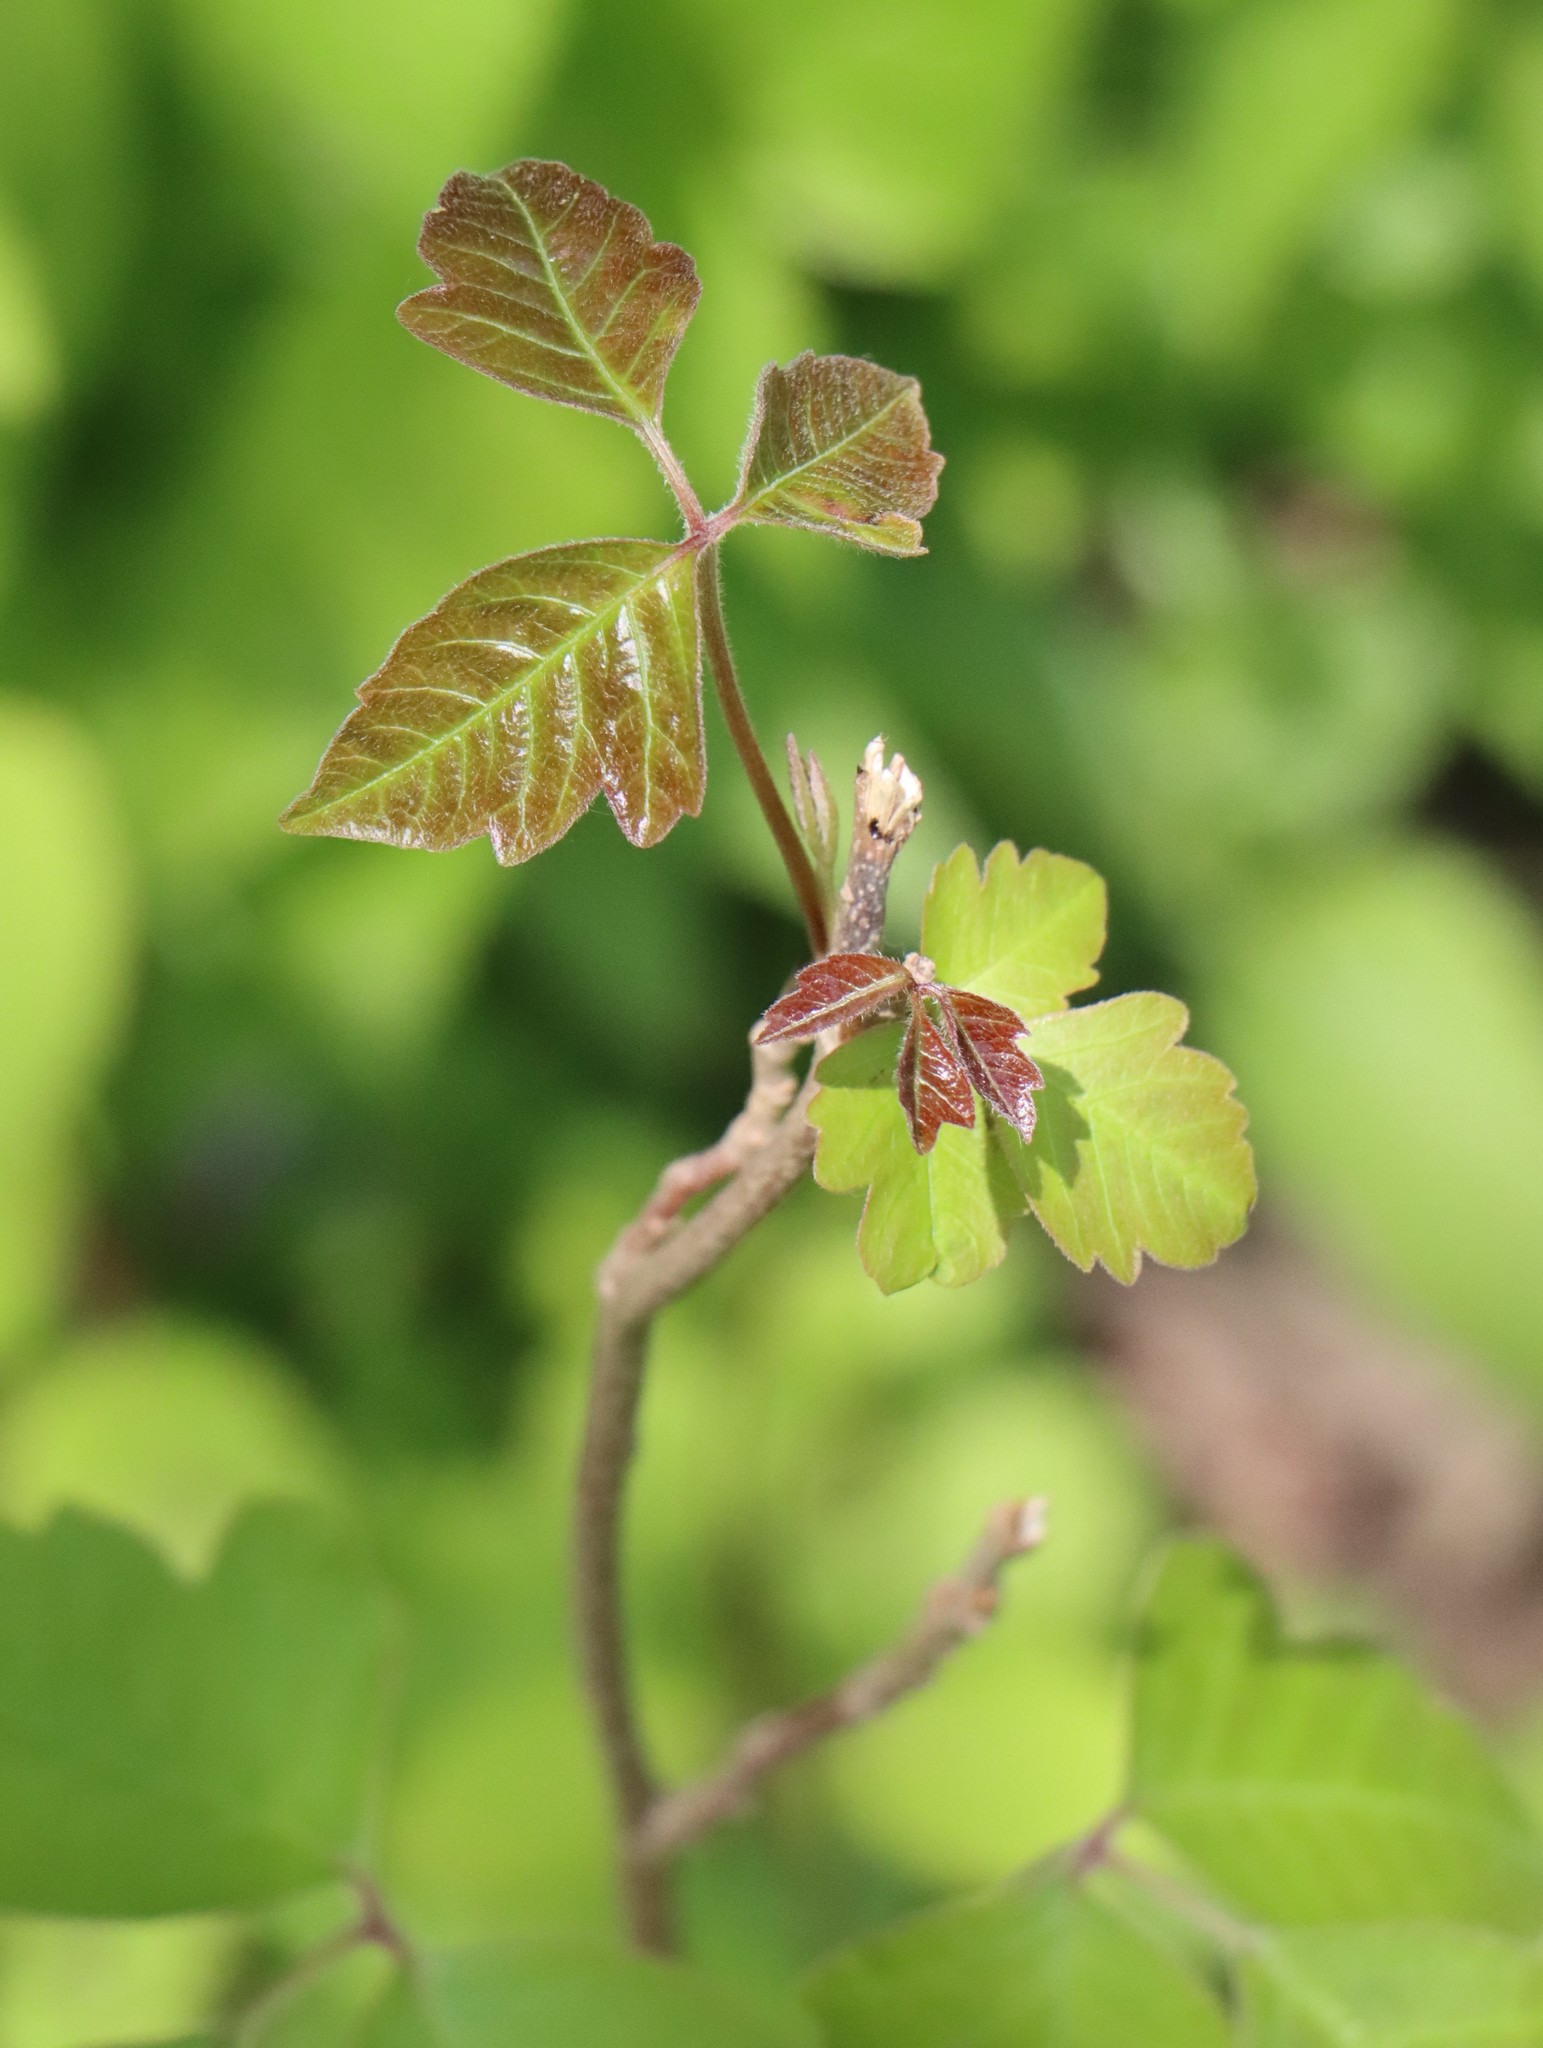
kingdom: Plantae
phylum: Tracheophyta
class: Magnoliopsida
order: Sapindales
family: Anacardiaceae
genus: Toxicodendron
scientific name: Toxicodendron radicans
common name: Poison ivy
